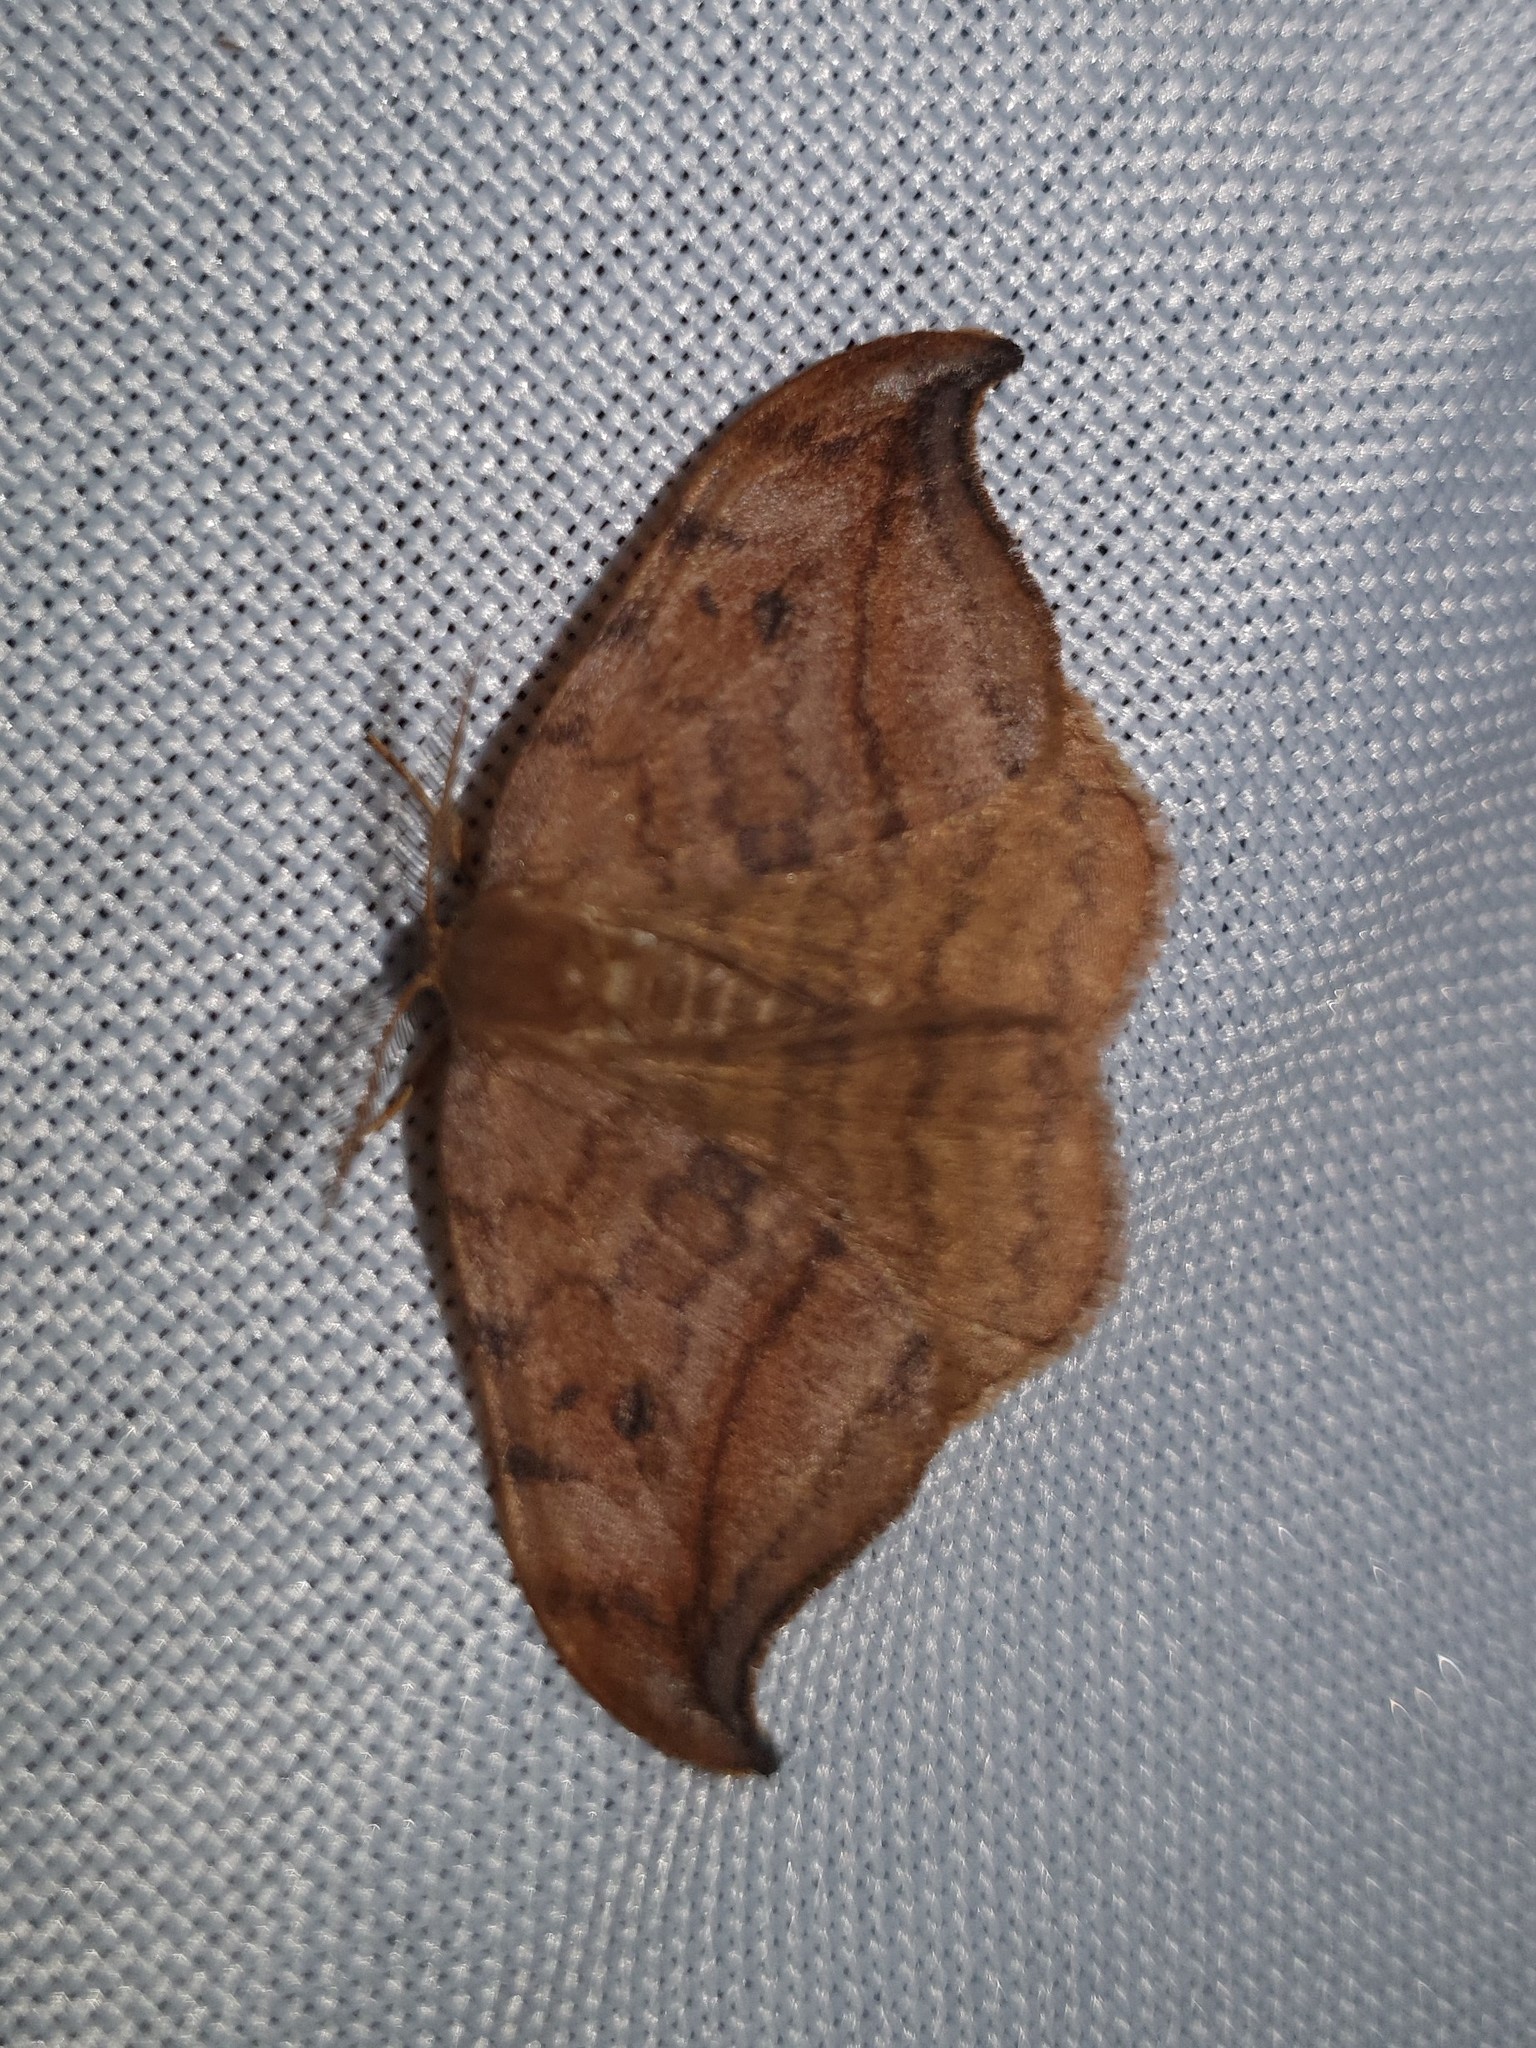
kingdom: Animalia
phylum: Arthropoda
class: Insecta
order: Lepidoptera
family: Drepanidae
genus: Drepana
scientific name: Drepana curvatula
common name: Dusky hook-tip
